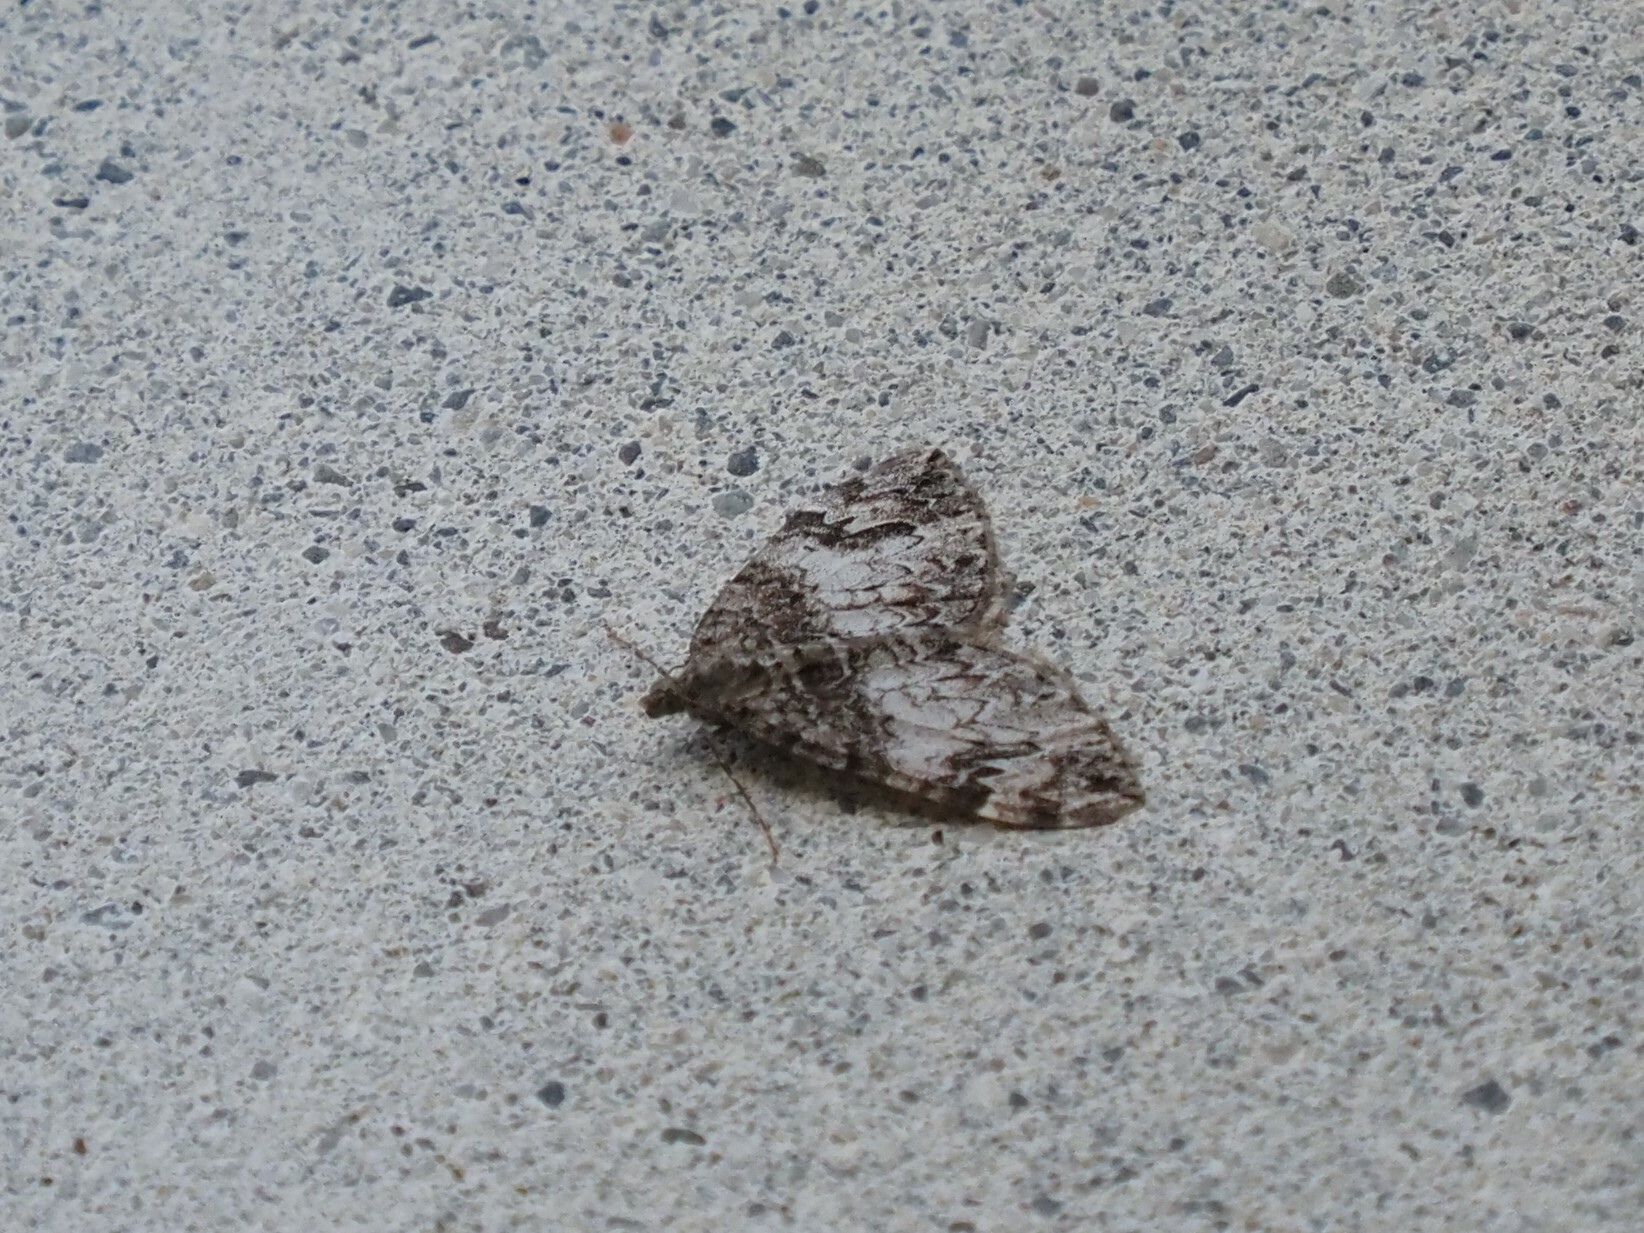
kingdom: Animalia
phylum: Arthropoda
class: Insecta
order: Lepidoptera
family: Geometridae
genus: Dysstroma
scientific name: Dysstroma citrata
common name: Dark marbled carpet
